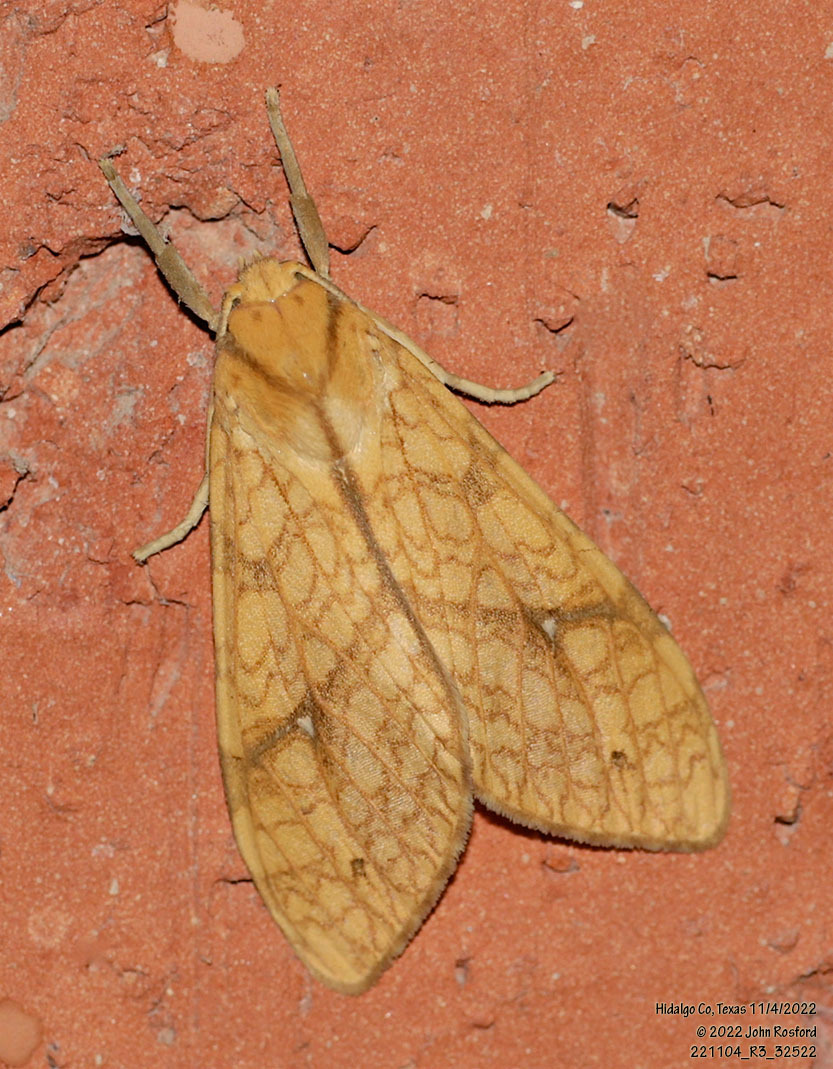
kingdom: Animalia
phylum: Arthropoda
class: Insecta
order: Lepidoptera
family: Erebidae
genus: Lophocampa
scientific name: Lophocampa annulosa
